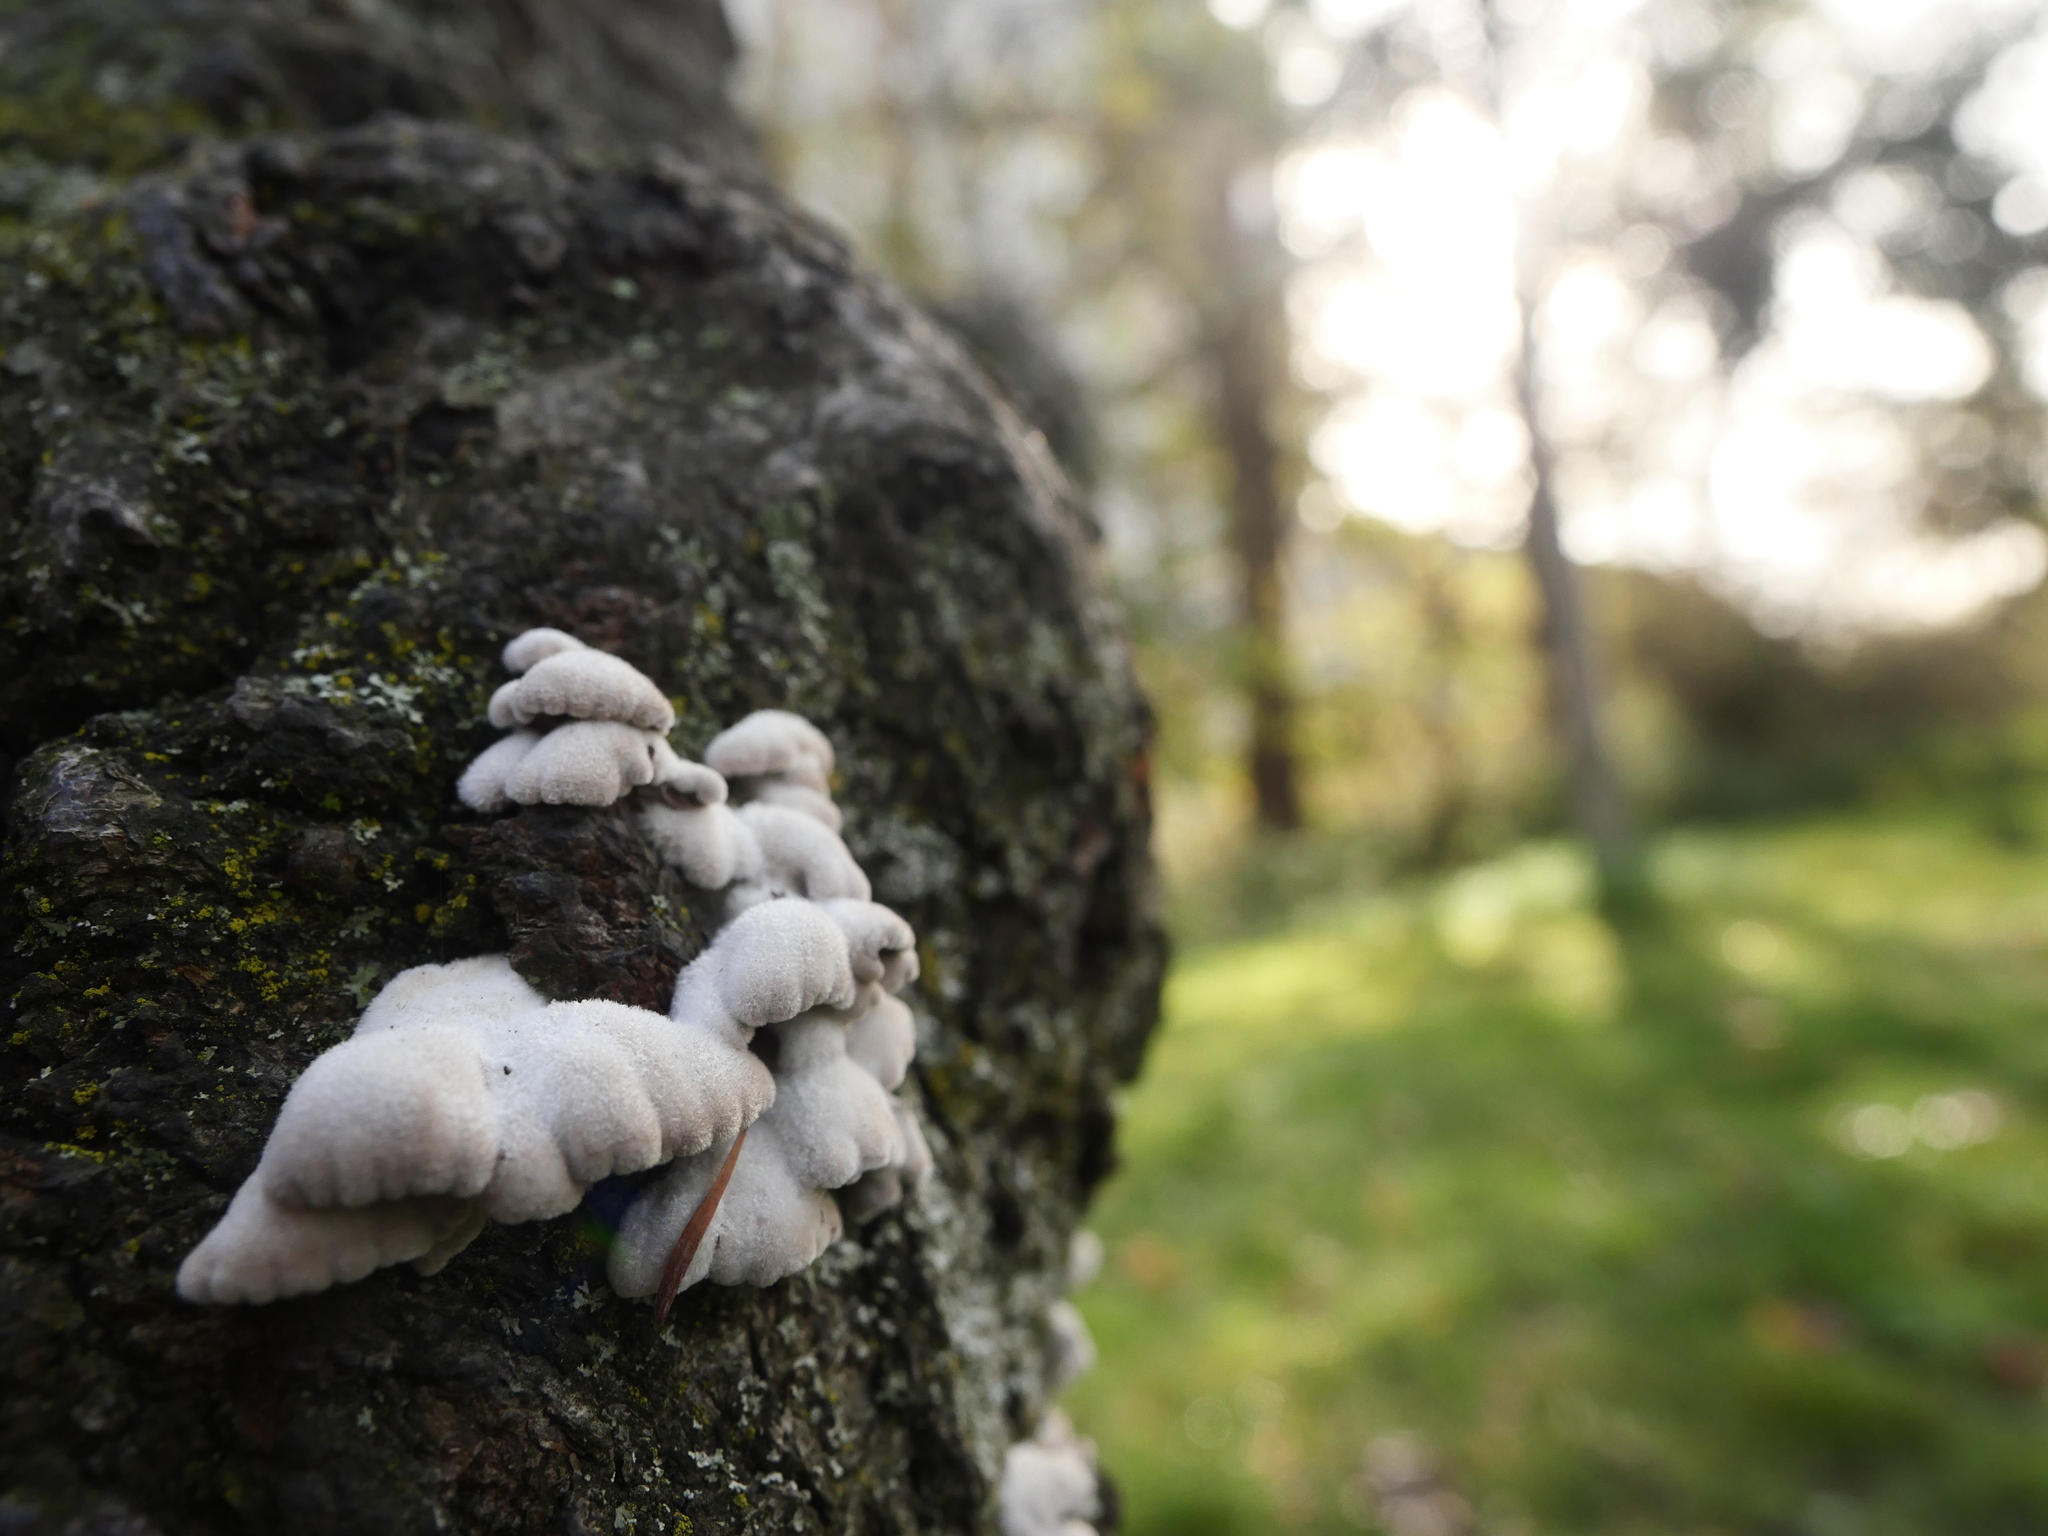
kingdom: Fungi
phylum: Basidiomycota
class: Agaricomycetes
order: Agaricales
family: Schizophyllaceae
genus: Schizophyllum
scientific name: Schizophyllum commune
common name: Common porecrust
